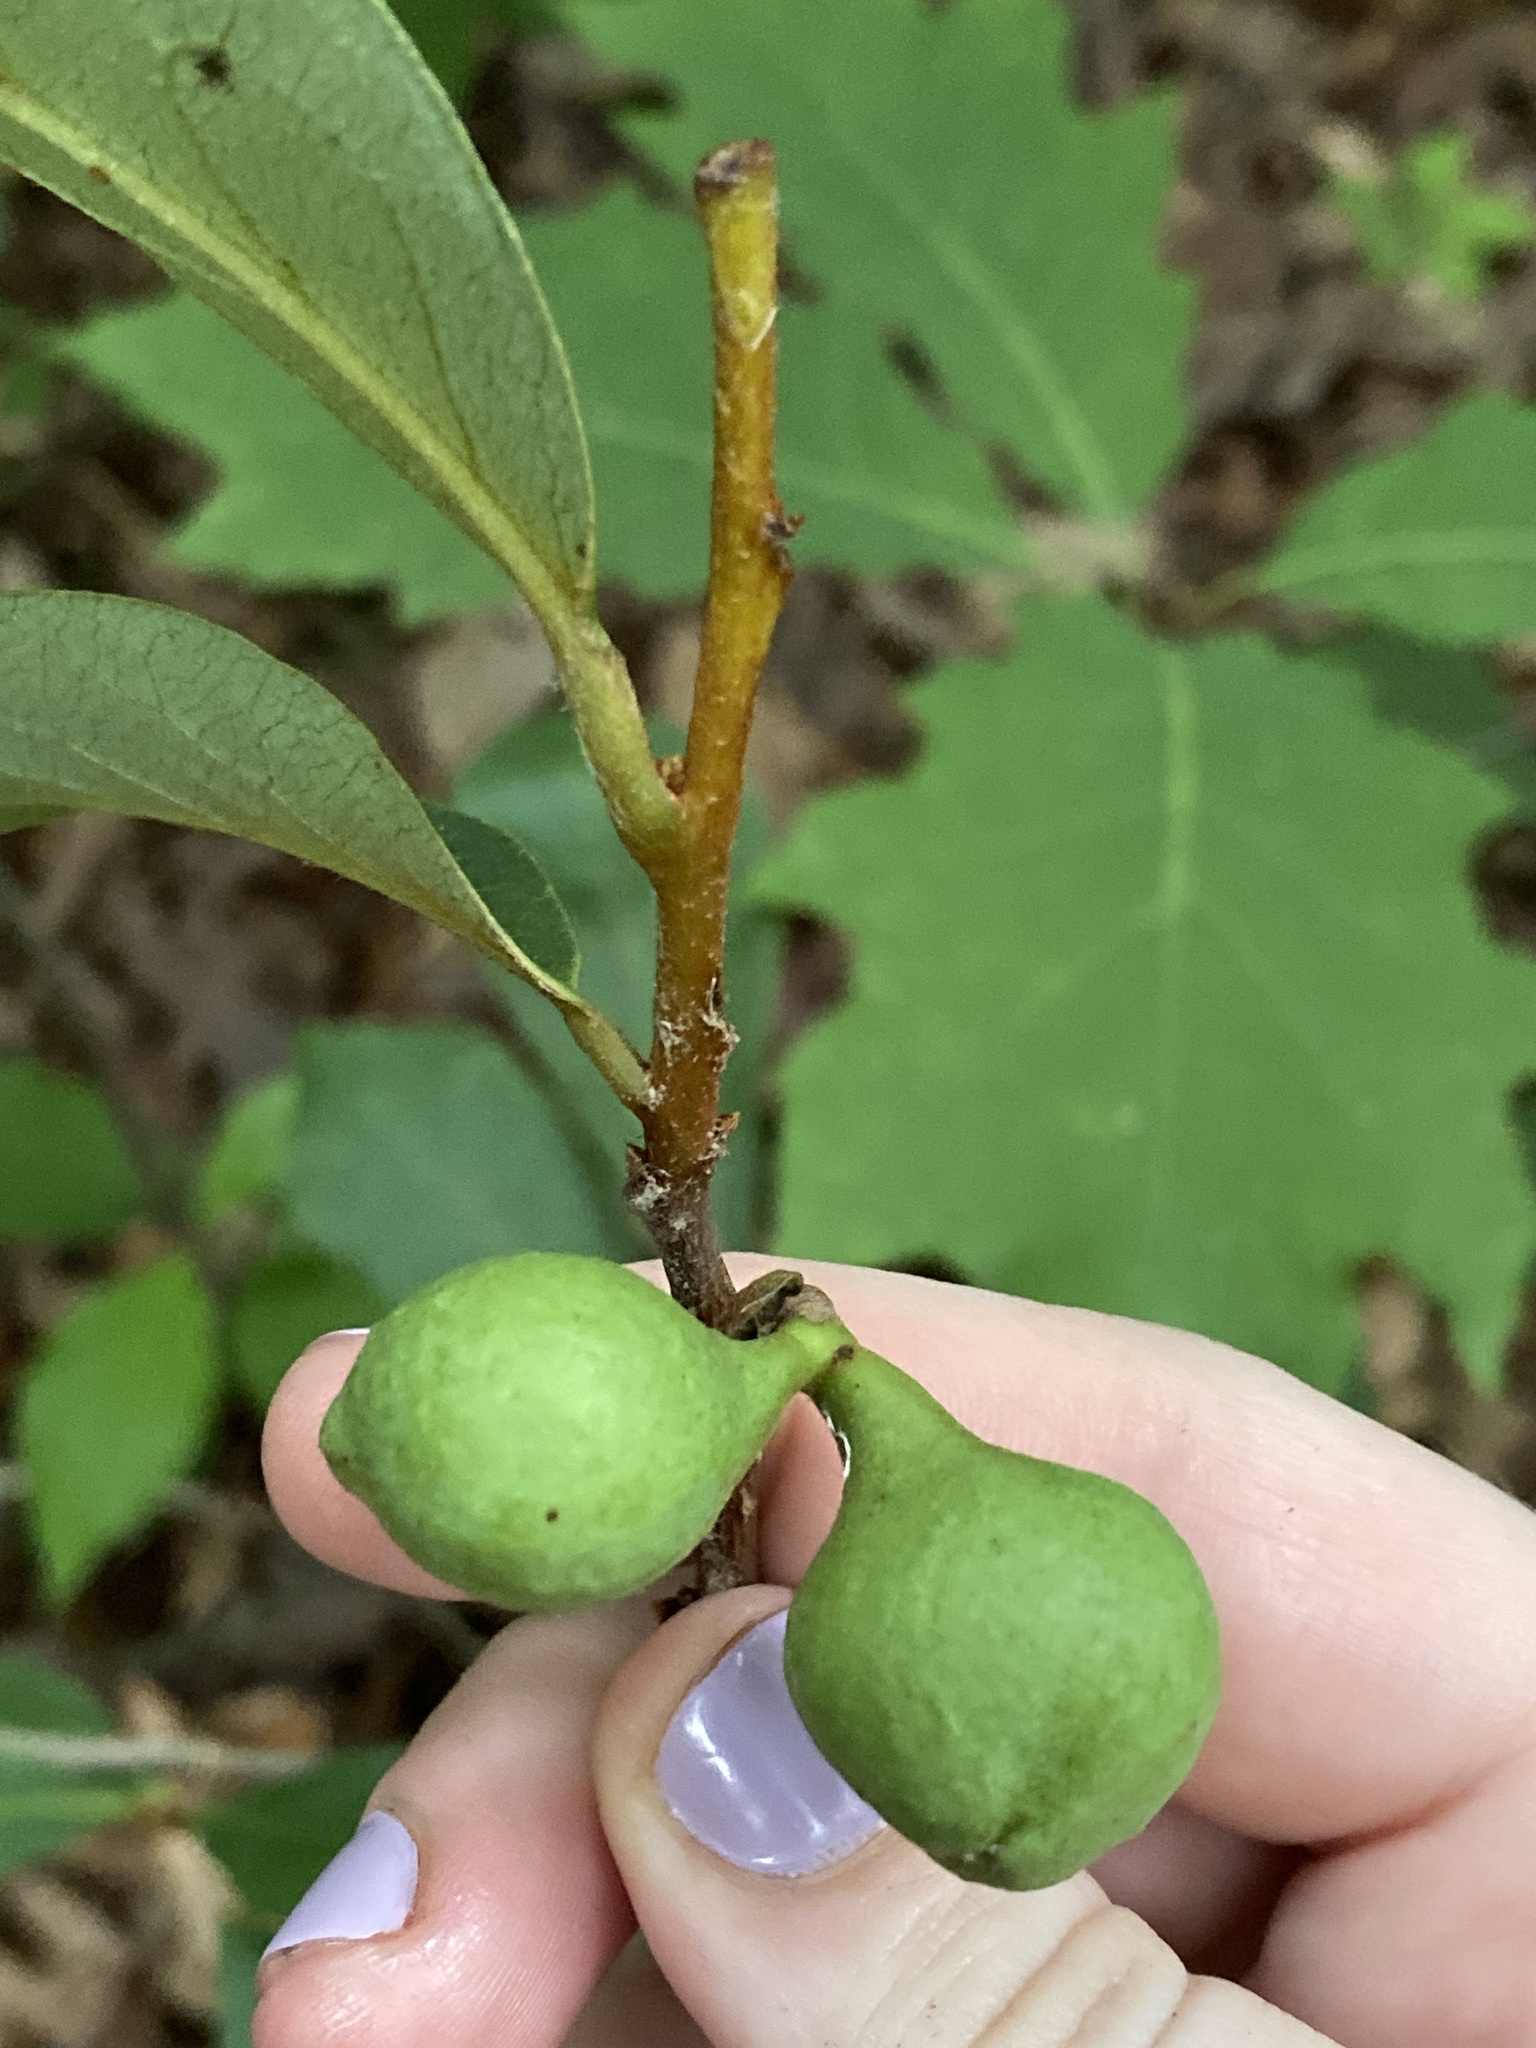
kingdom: Plantae
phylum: Tracheophyta
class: Magnoliopsida
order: Magnoliales
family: Annonaceae
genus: Asimina
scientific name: Asimina parviflora
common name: Dwarf pawpaw
